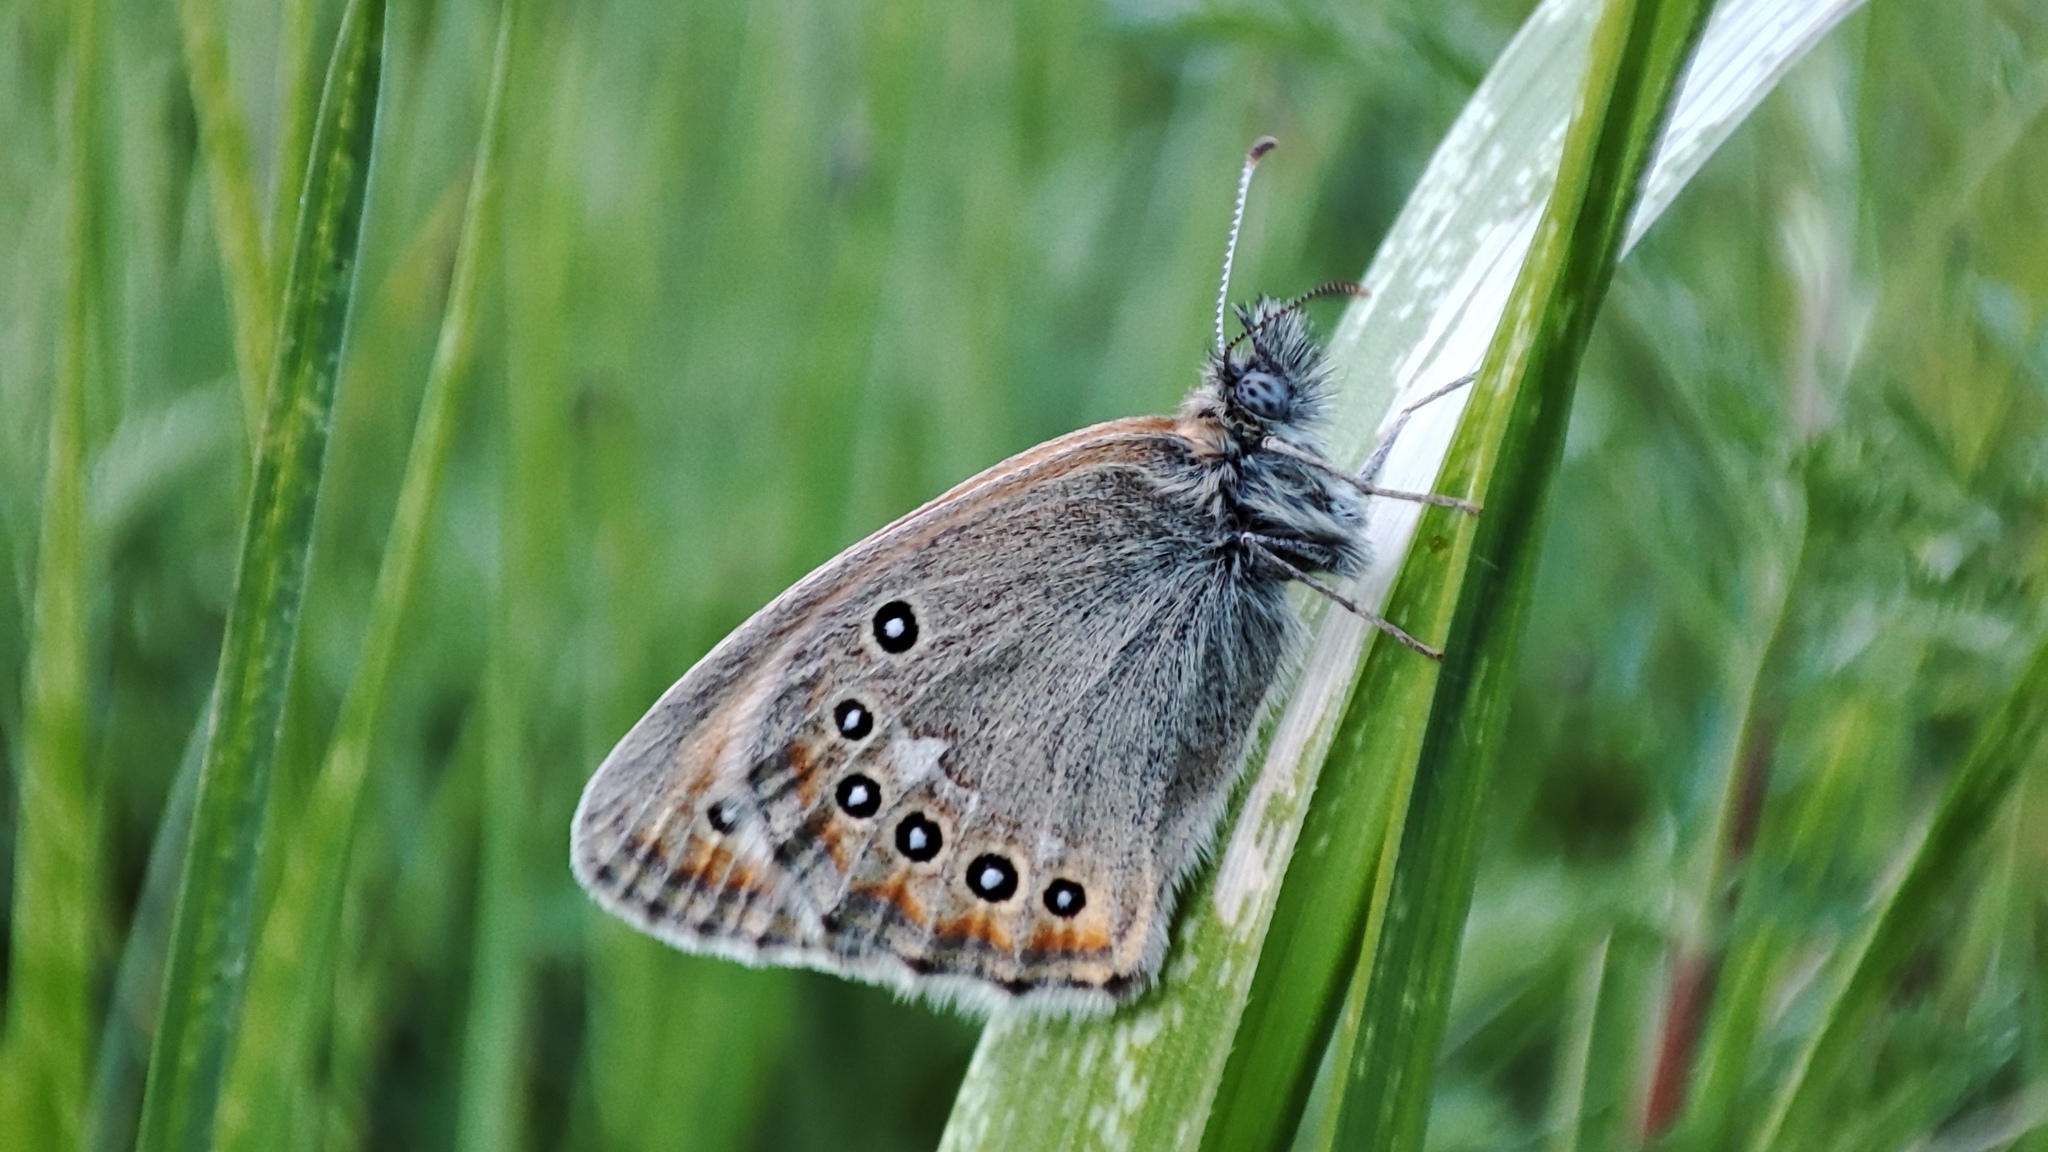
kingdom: Animalia
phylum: Arthropoda
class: Insecta
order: Lepidoptera
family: Nymphalidae
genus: Coenonympha
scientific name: Coenonympha amaryllis
